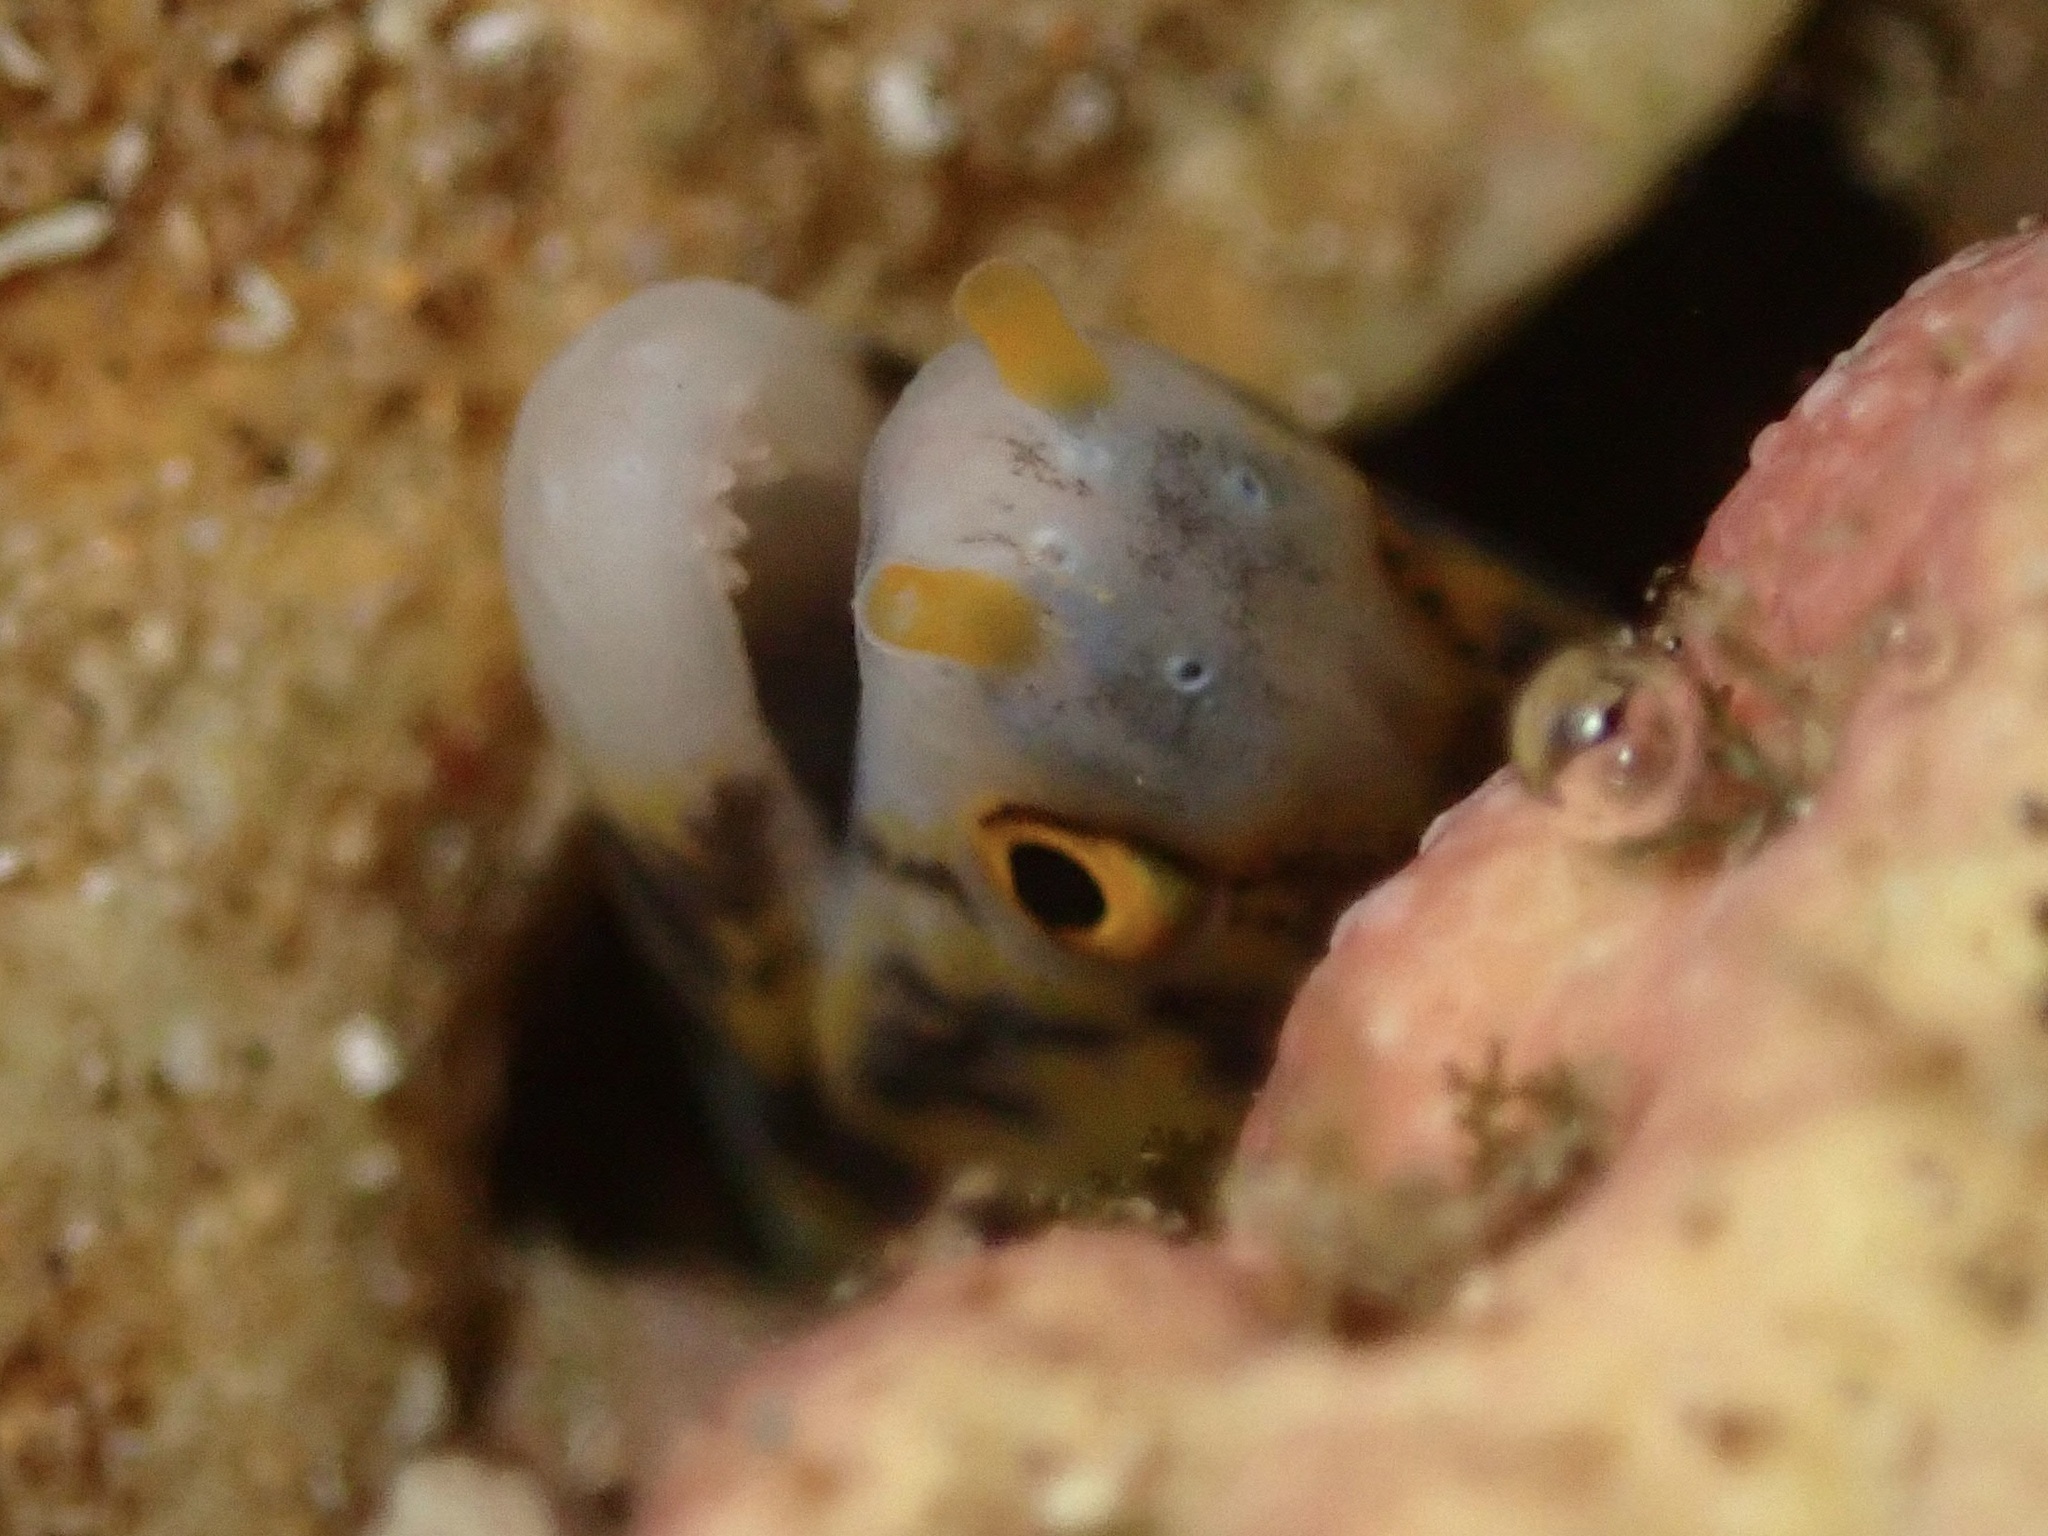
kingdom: Animalia
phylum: Chordata
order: Anguilliformes
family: Muraenidae
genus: Echidna
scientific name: Echidna nebulosa
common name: Snowflake moray
